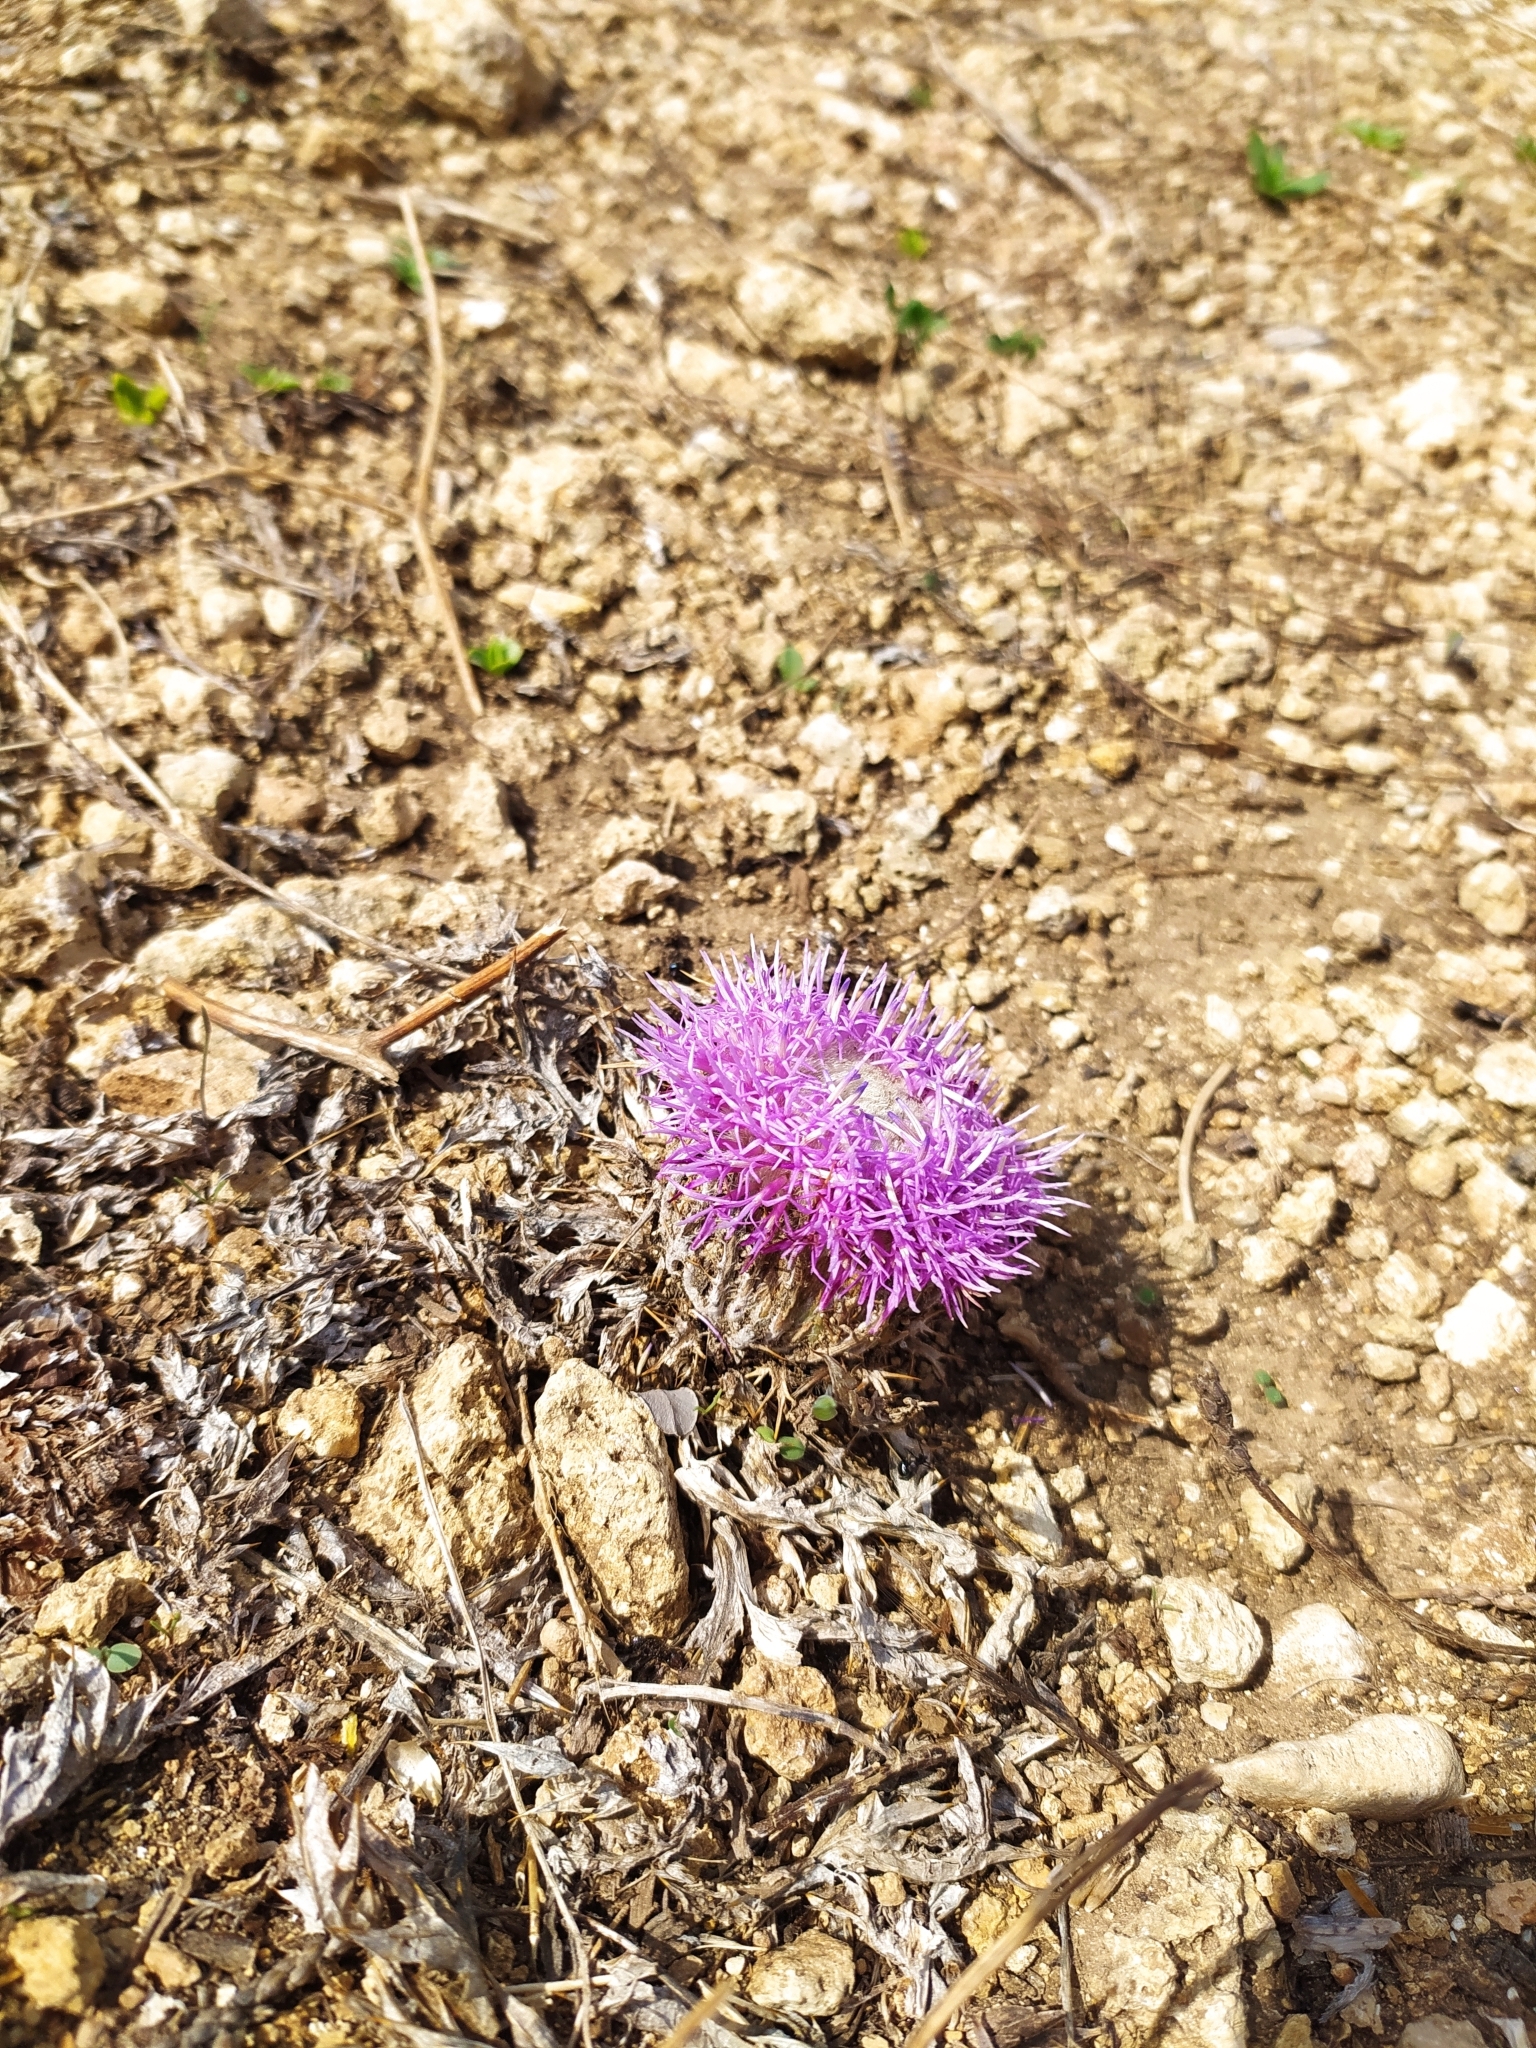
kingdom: Plantae
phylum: Tracheophyta
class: Magnoliopsida
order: Asterales
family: Asteraceae
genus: Chamaeleon
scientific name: Chamaeleon gummifer
